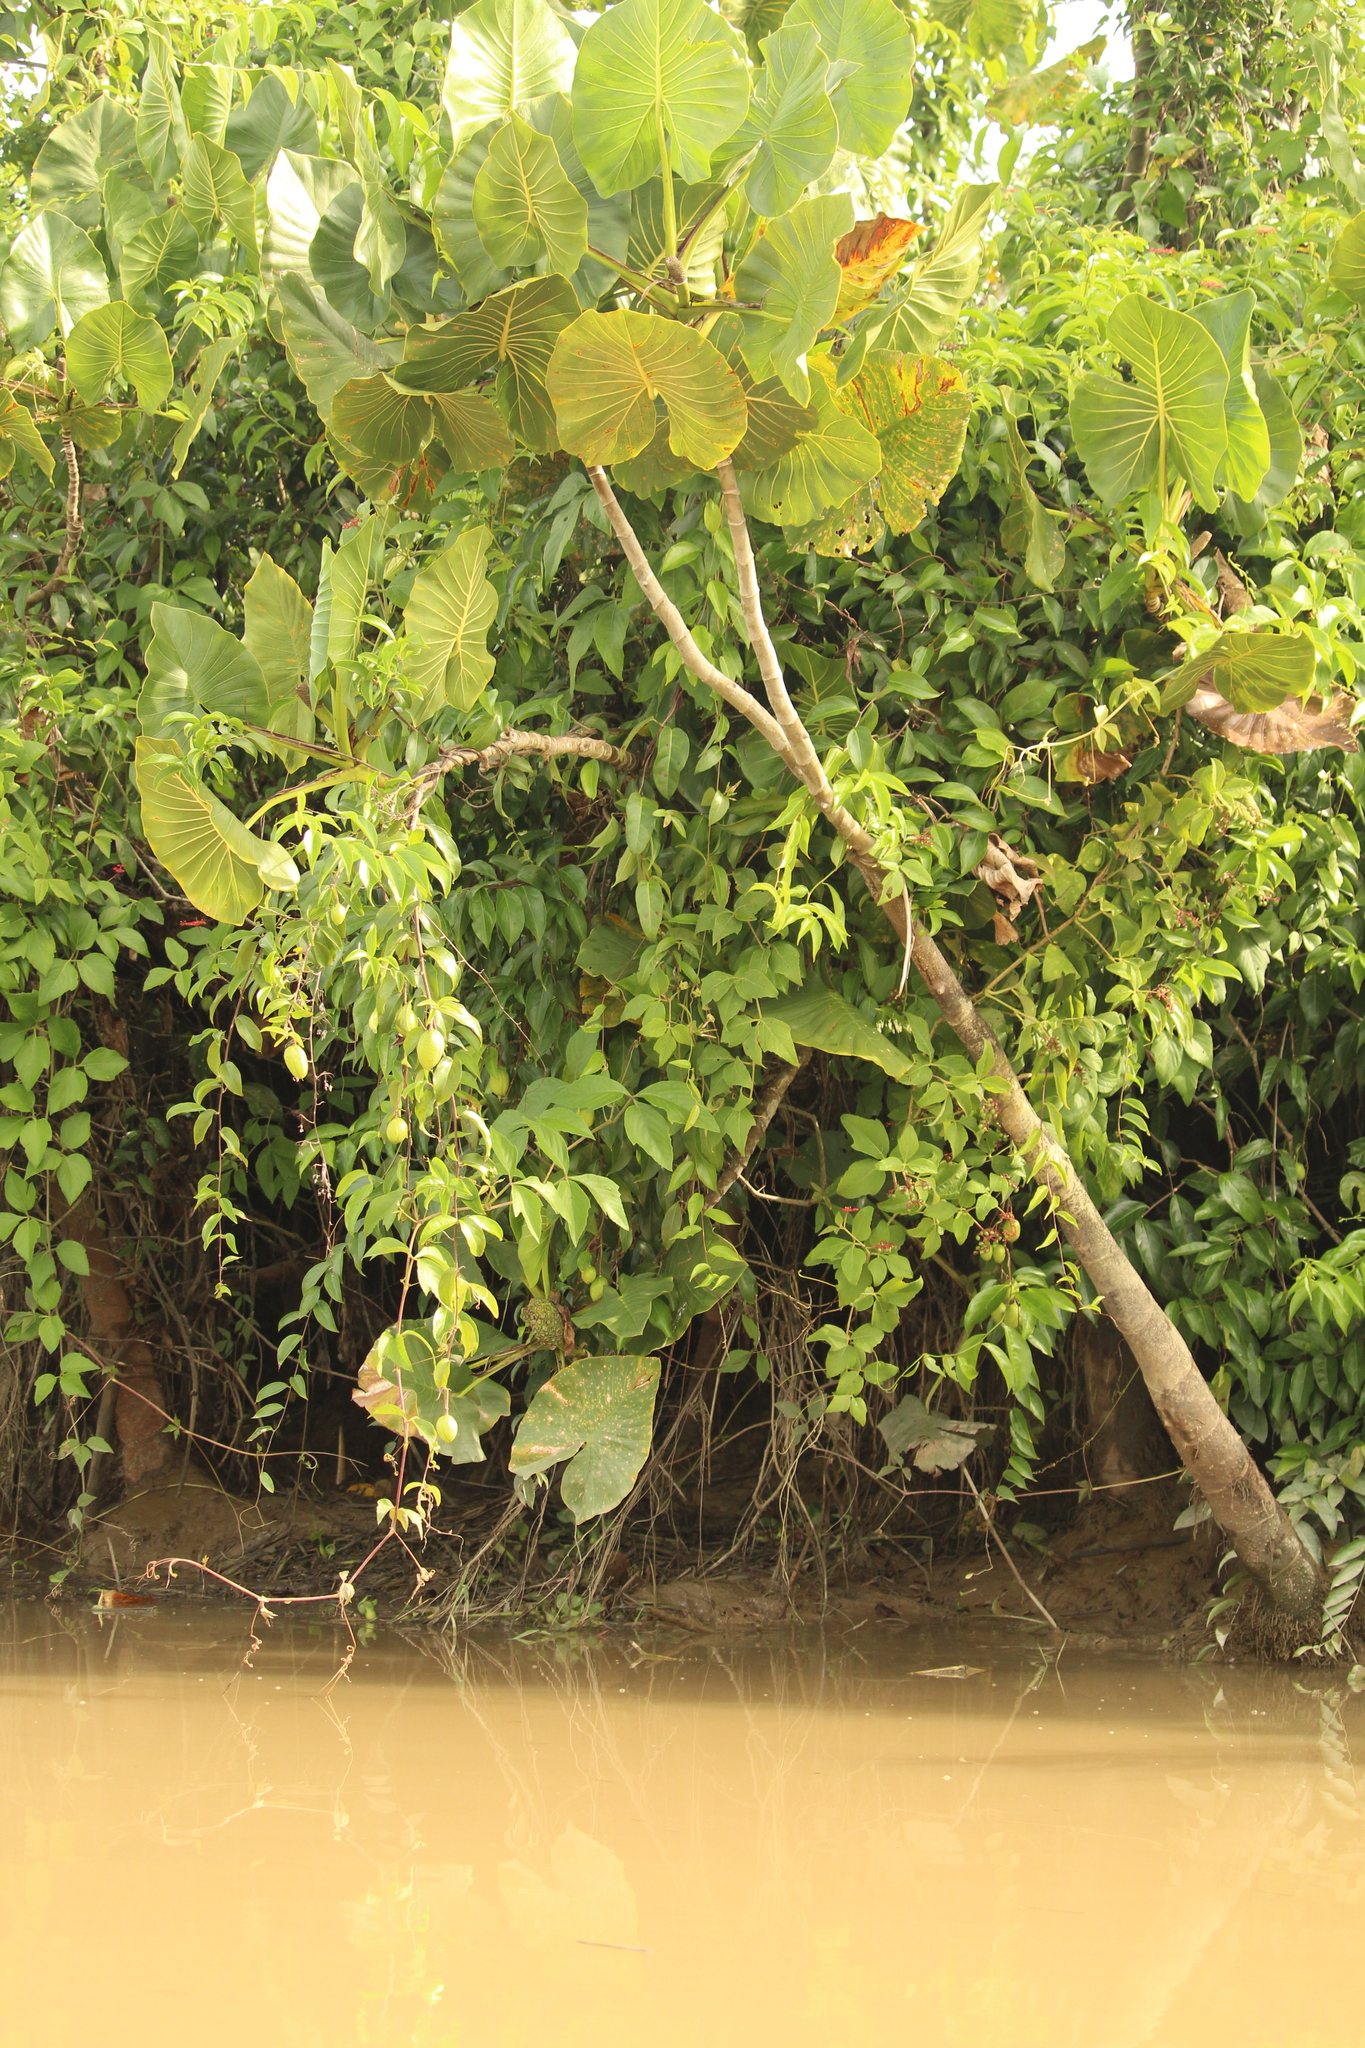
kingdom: Plantae
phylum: Tracheophyta
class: Liliopsida
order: Alismatales
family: Araceae
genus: Montrichardia
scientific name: Montrichardia linifera
